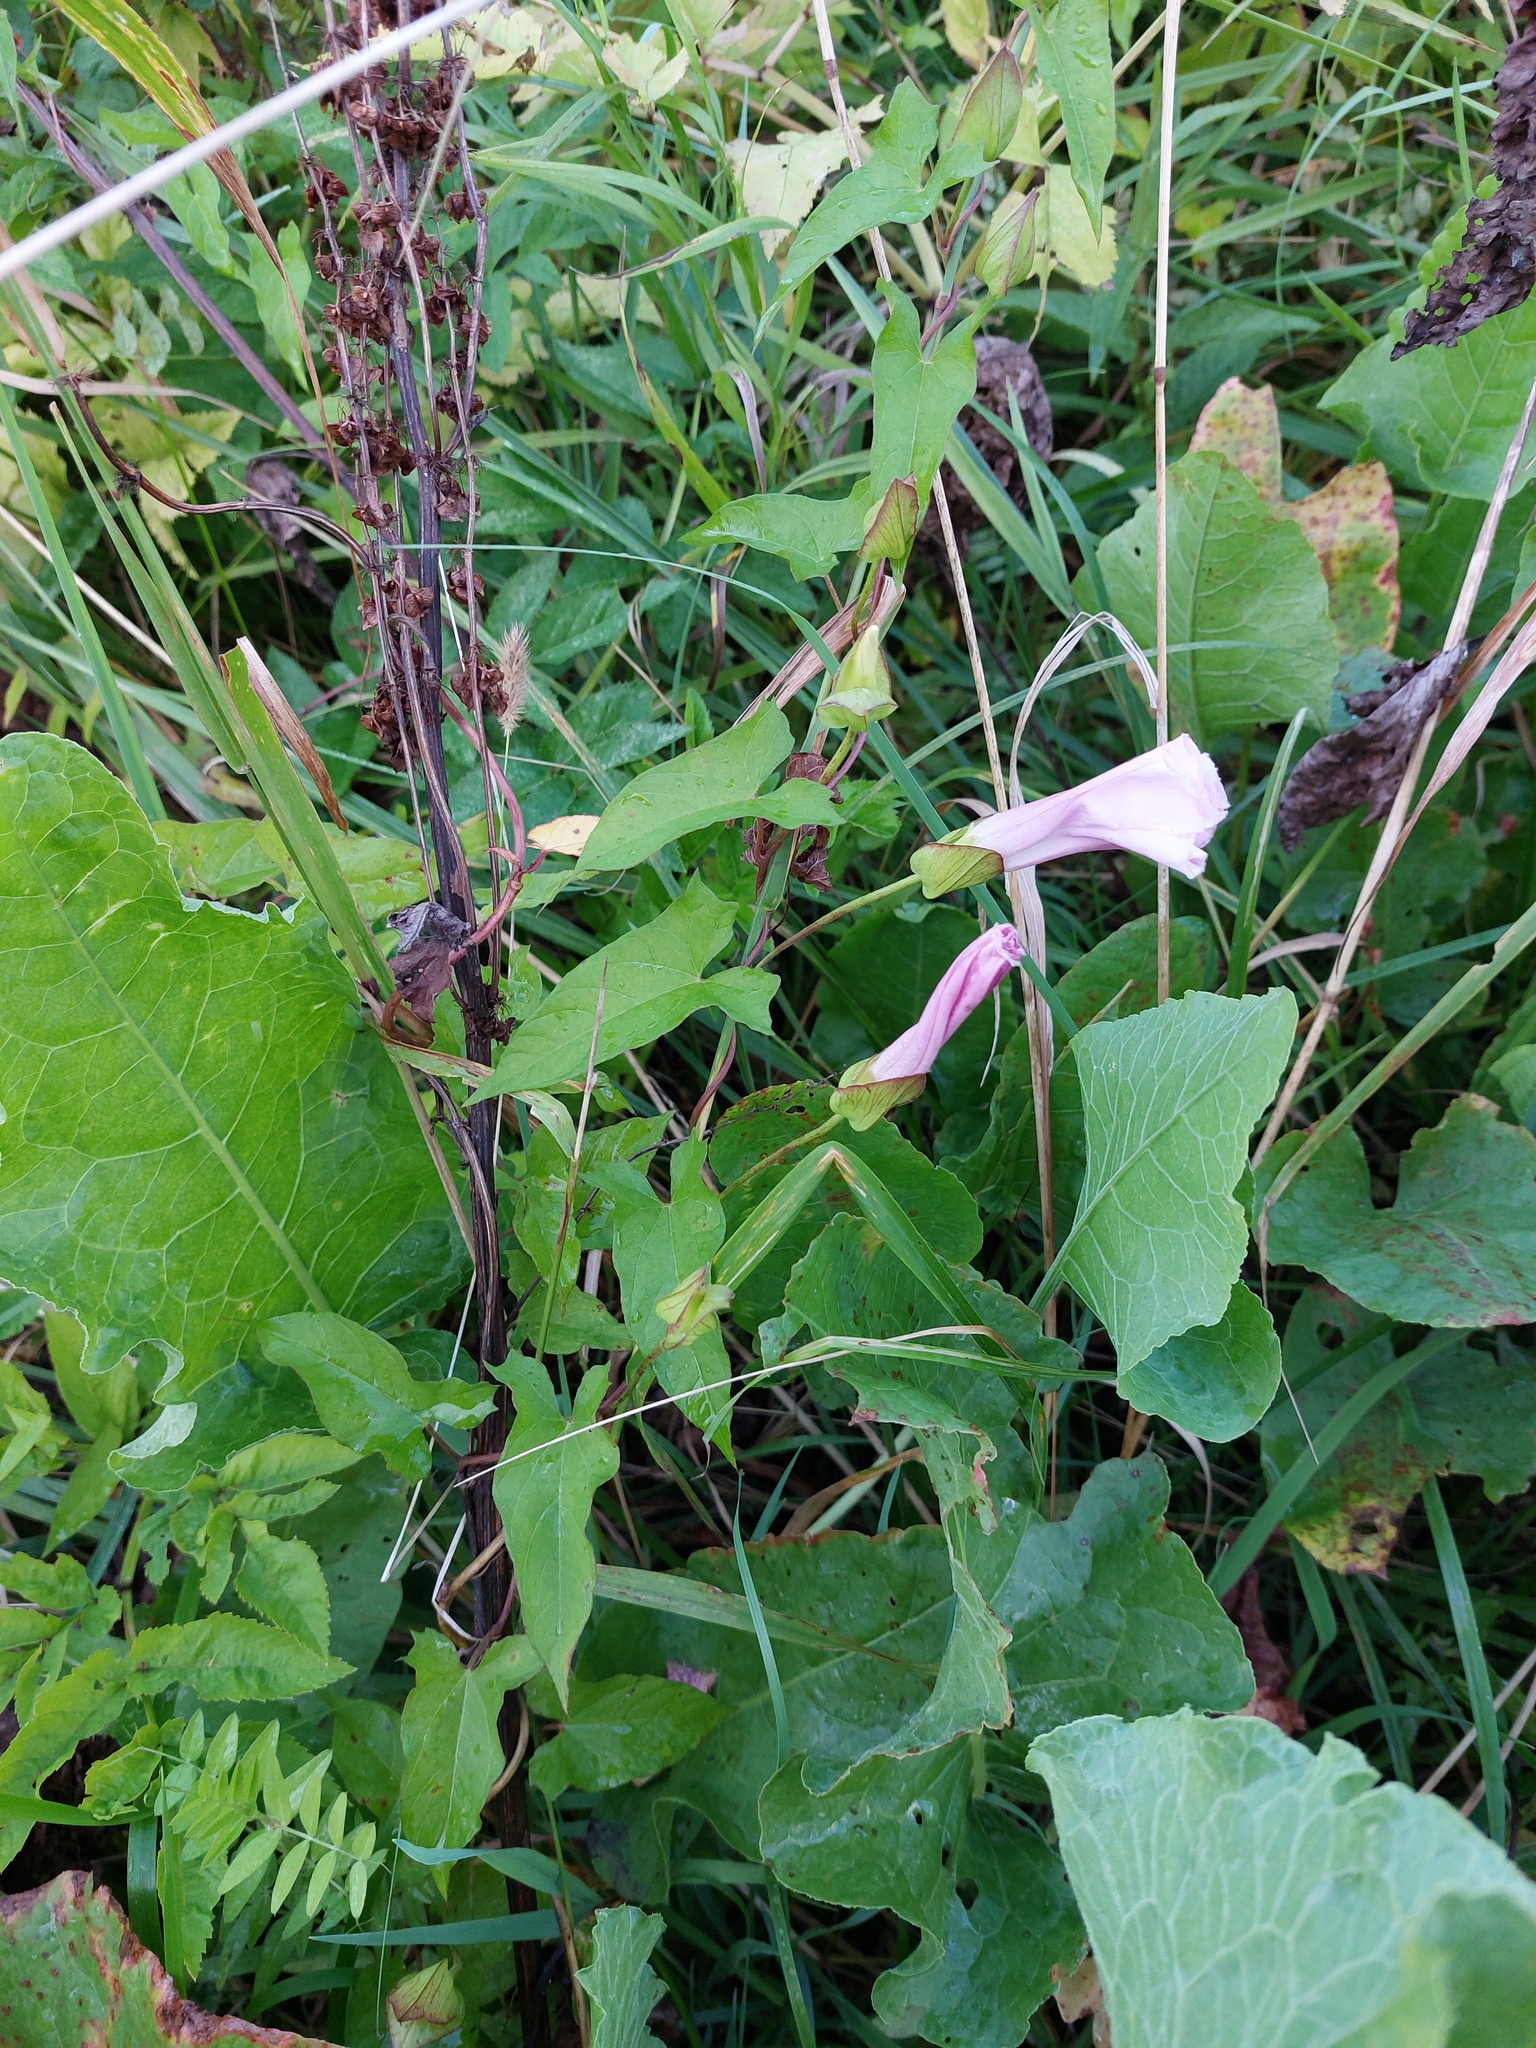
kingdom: Plantae
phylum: Tracheophyta
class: Magnoliopsida
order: Solanales
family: Convolvulaceae
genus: Calystegia
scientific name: Calystegia sepium
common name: Hedge bindweed
